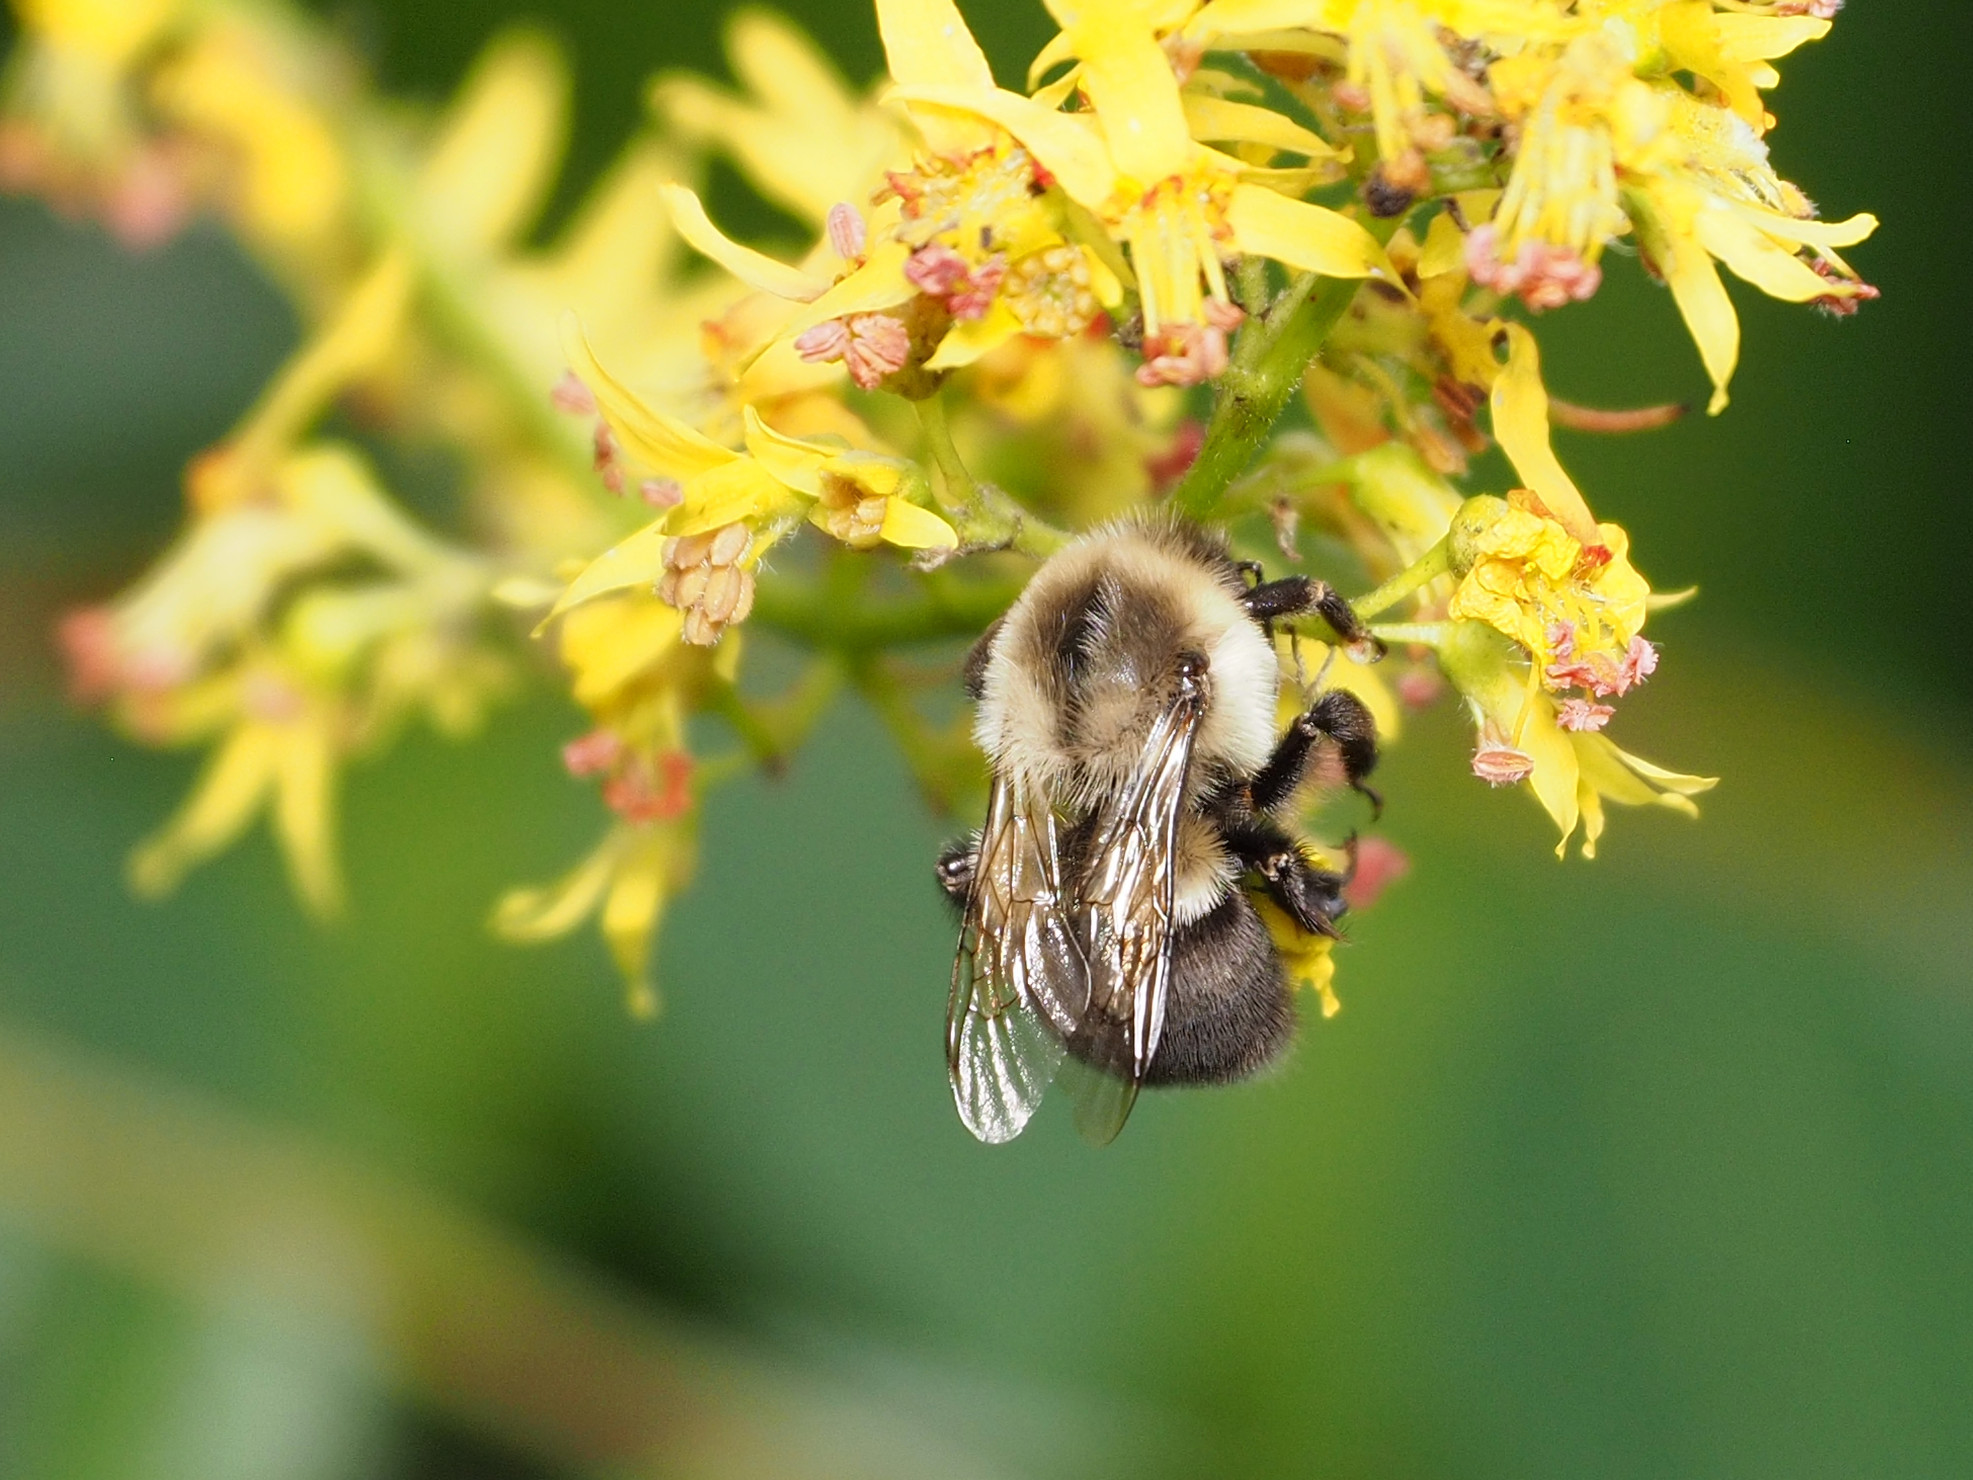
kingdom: Animalia
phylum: Arthropoda
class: Insecta
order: Hymenoptera
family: Apidae
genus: Bombus
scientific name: Bombus impatiens
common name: Common eastern bumble bee
